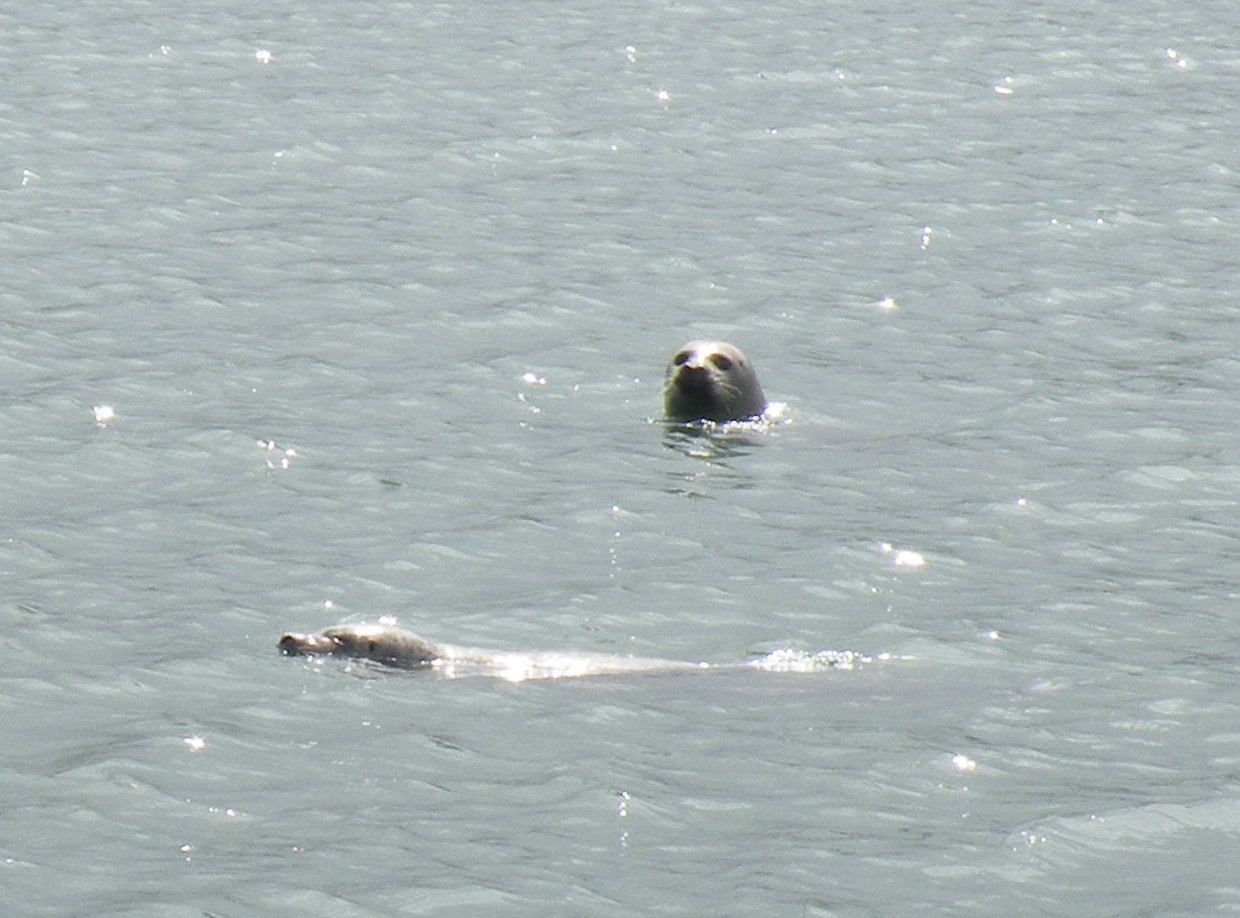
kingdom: Animalia
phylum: Chordata
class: Mammalia
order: Carnivora
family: Phocidae
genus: Phoca
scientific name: Phoca vitulina
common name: Harbor seal
